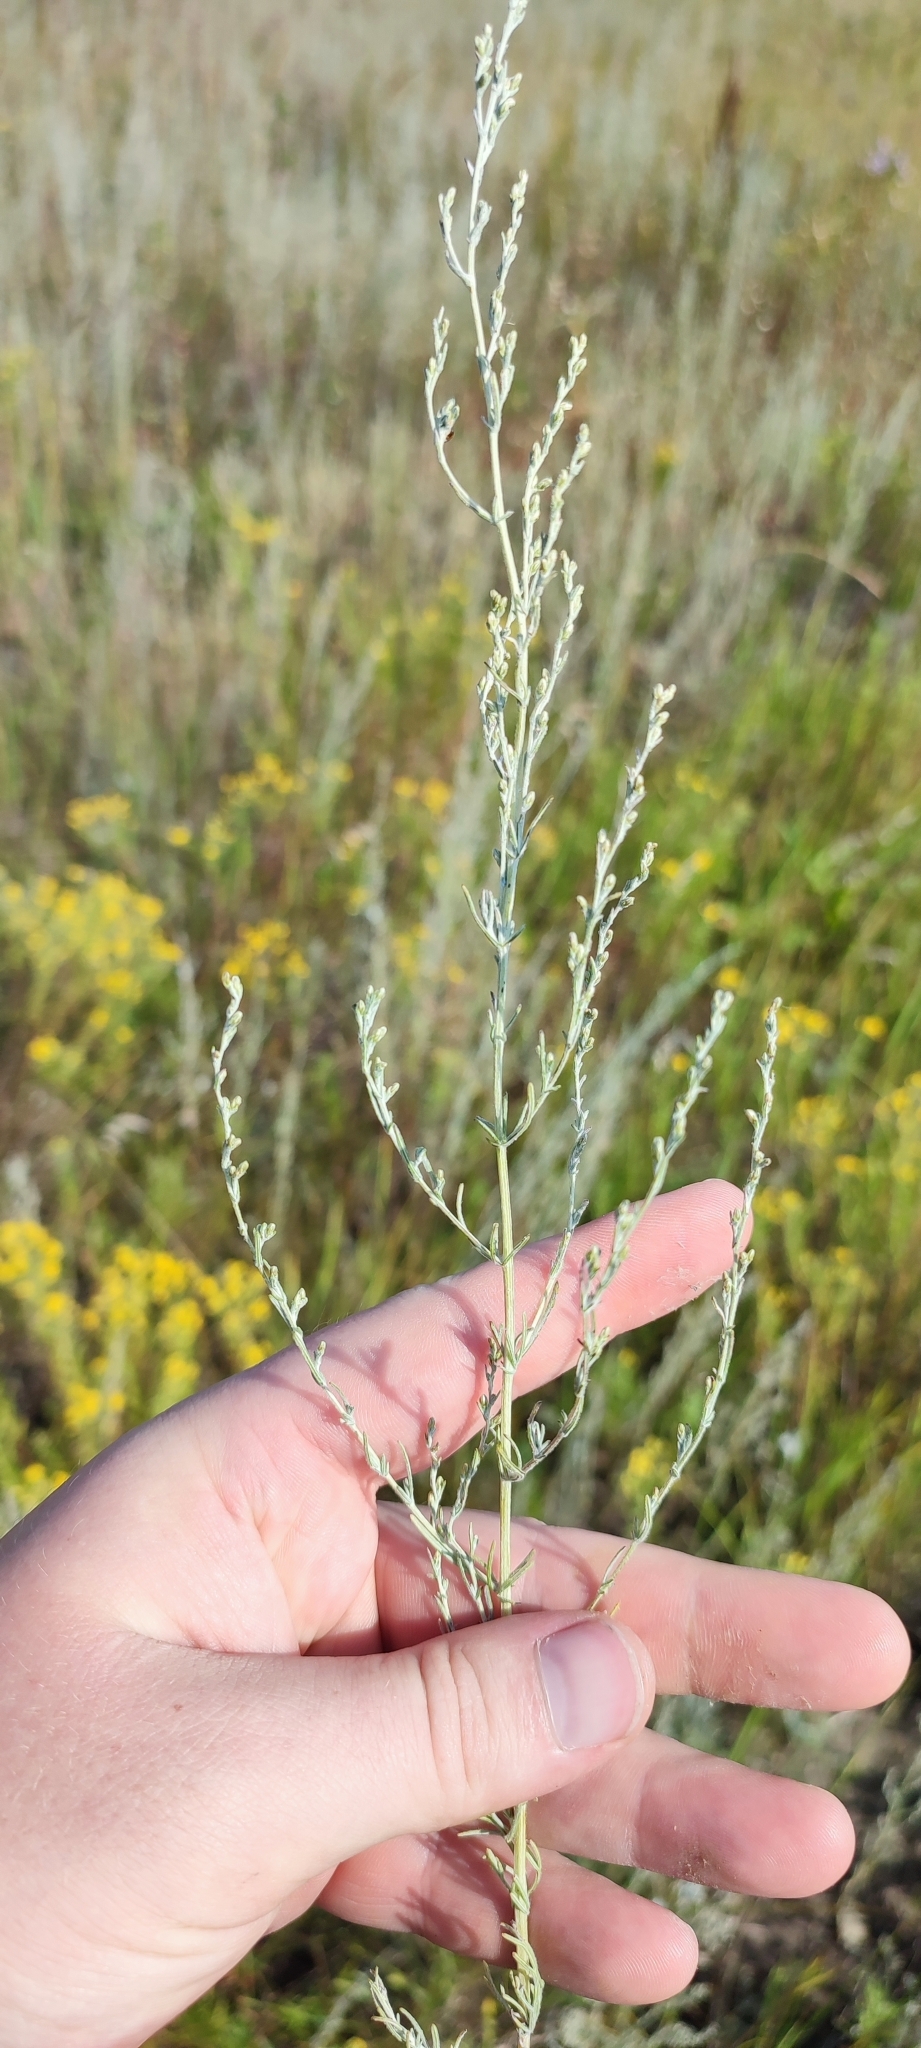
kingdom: Plantae
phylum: Tracheophyta
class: Magnoliopsida
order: Asterales
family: Asteraceae
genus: Artemisia
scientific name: Artemisia nitrosa
